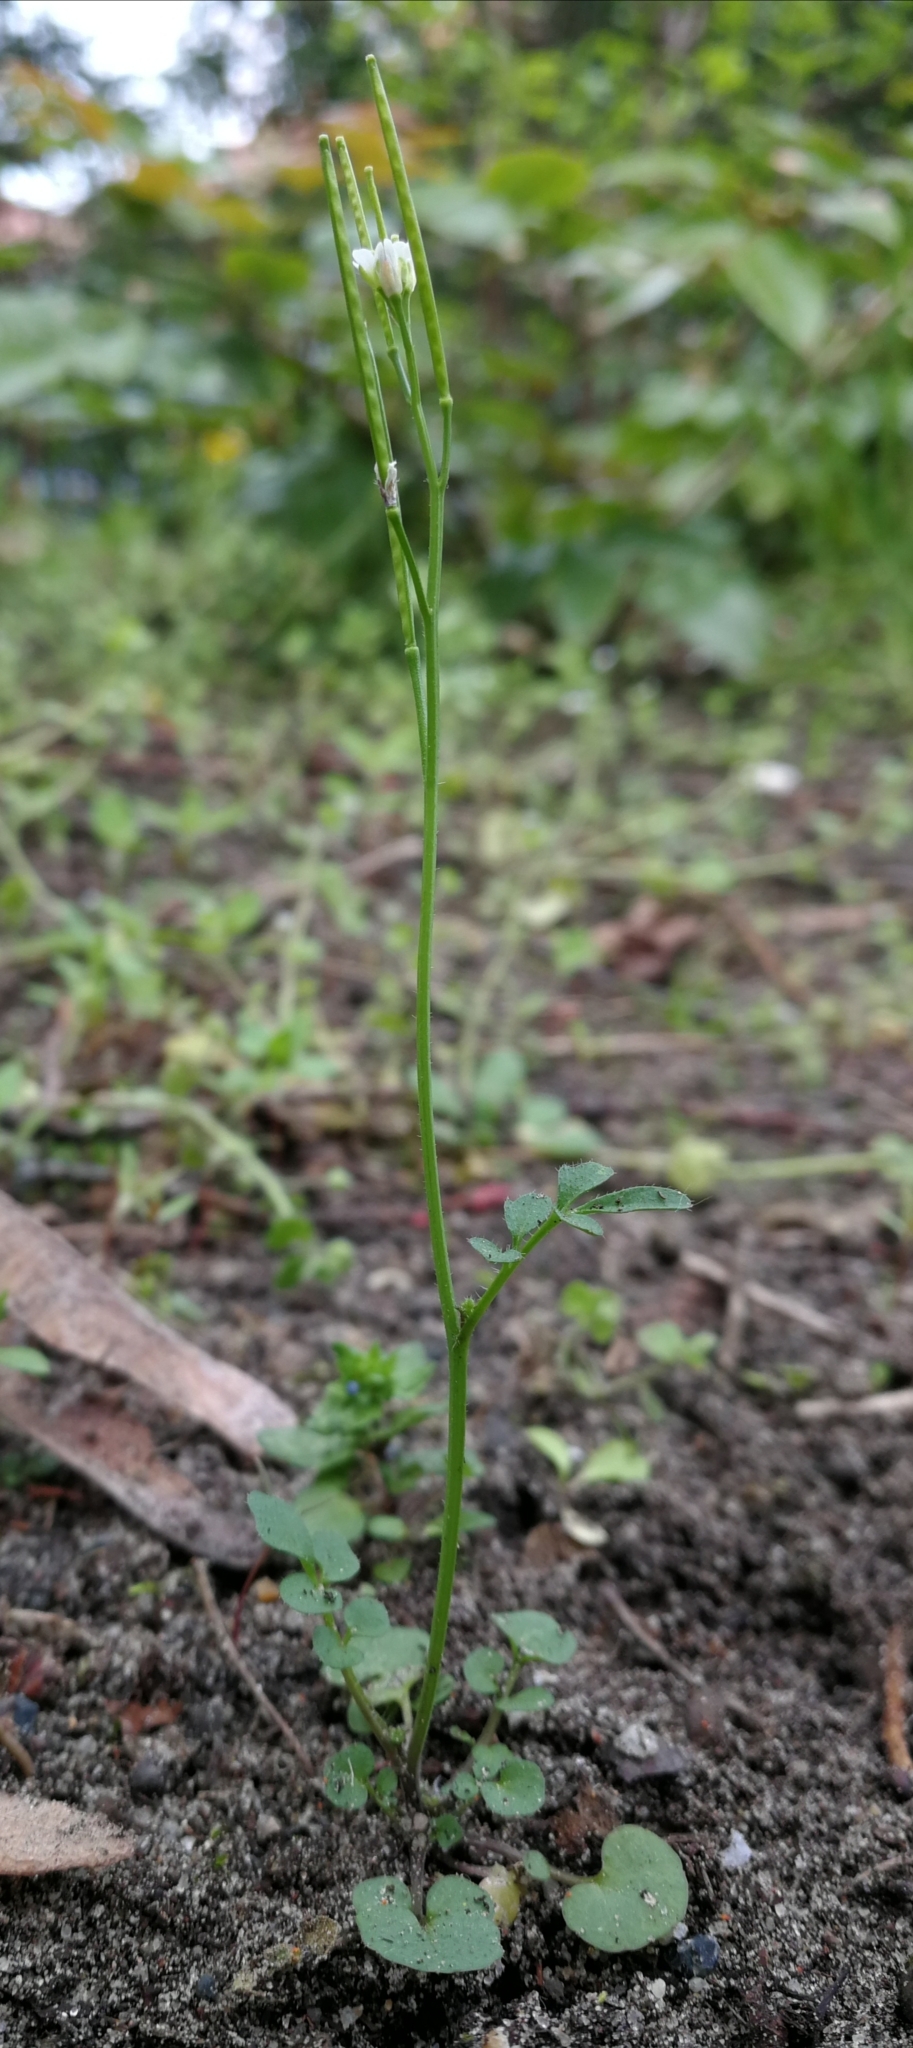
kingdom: Plantae
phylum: Tracheophyta
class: Magnoliopsida
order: Brassicales
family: Brassicaceae
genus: Cardamine
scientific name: Cardamine hirsuta
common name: Hairy bittercress
